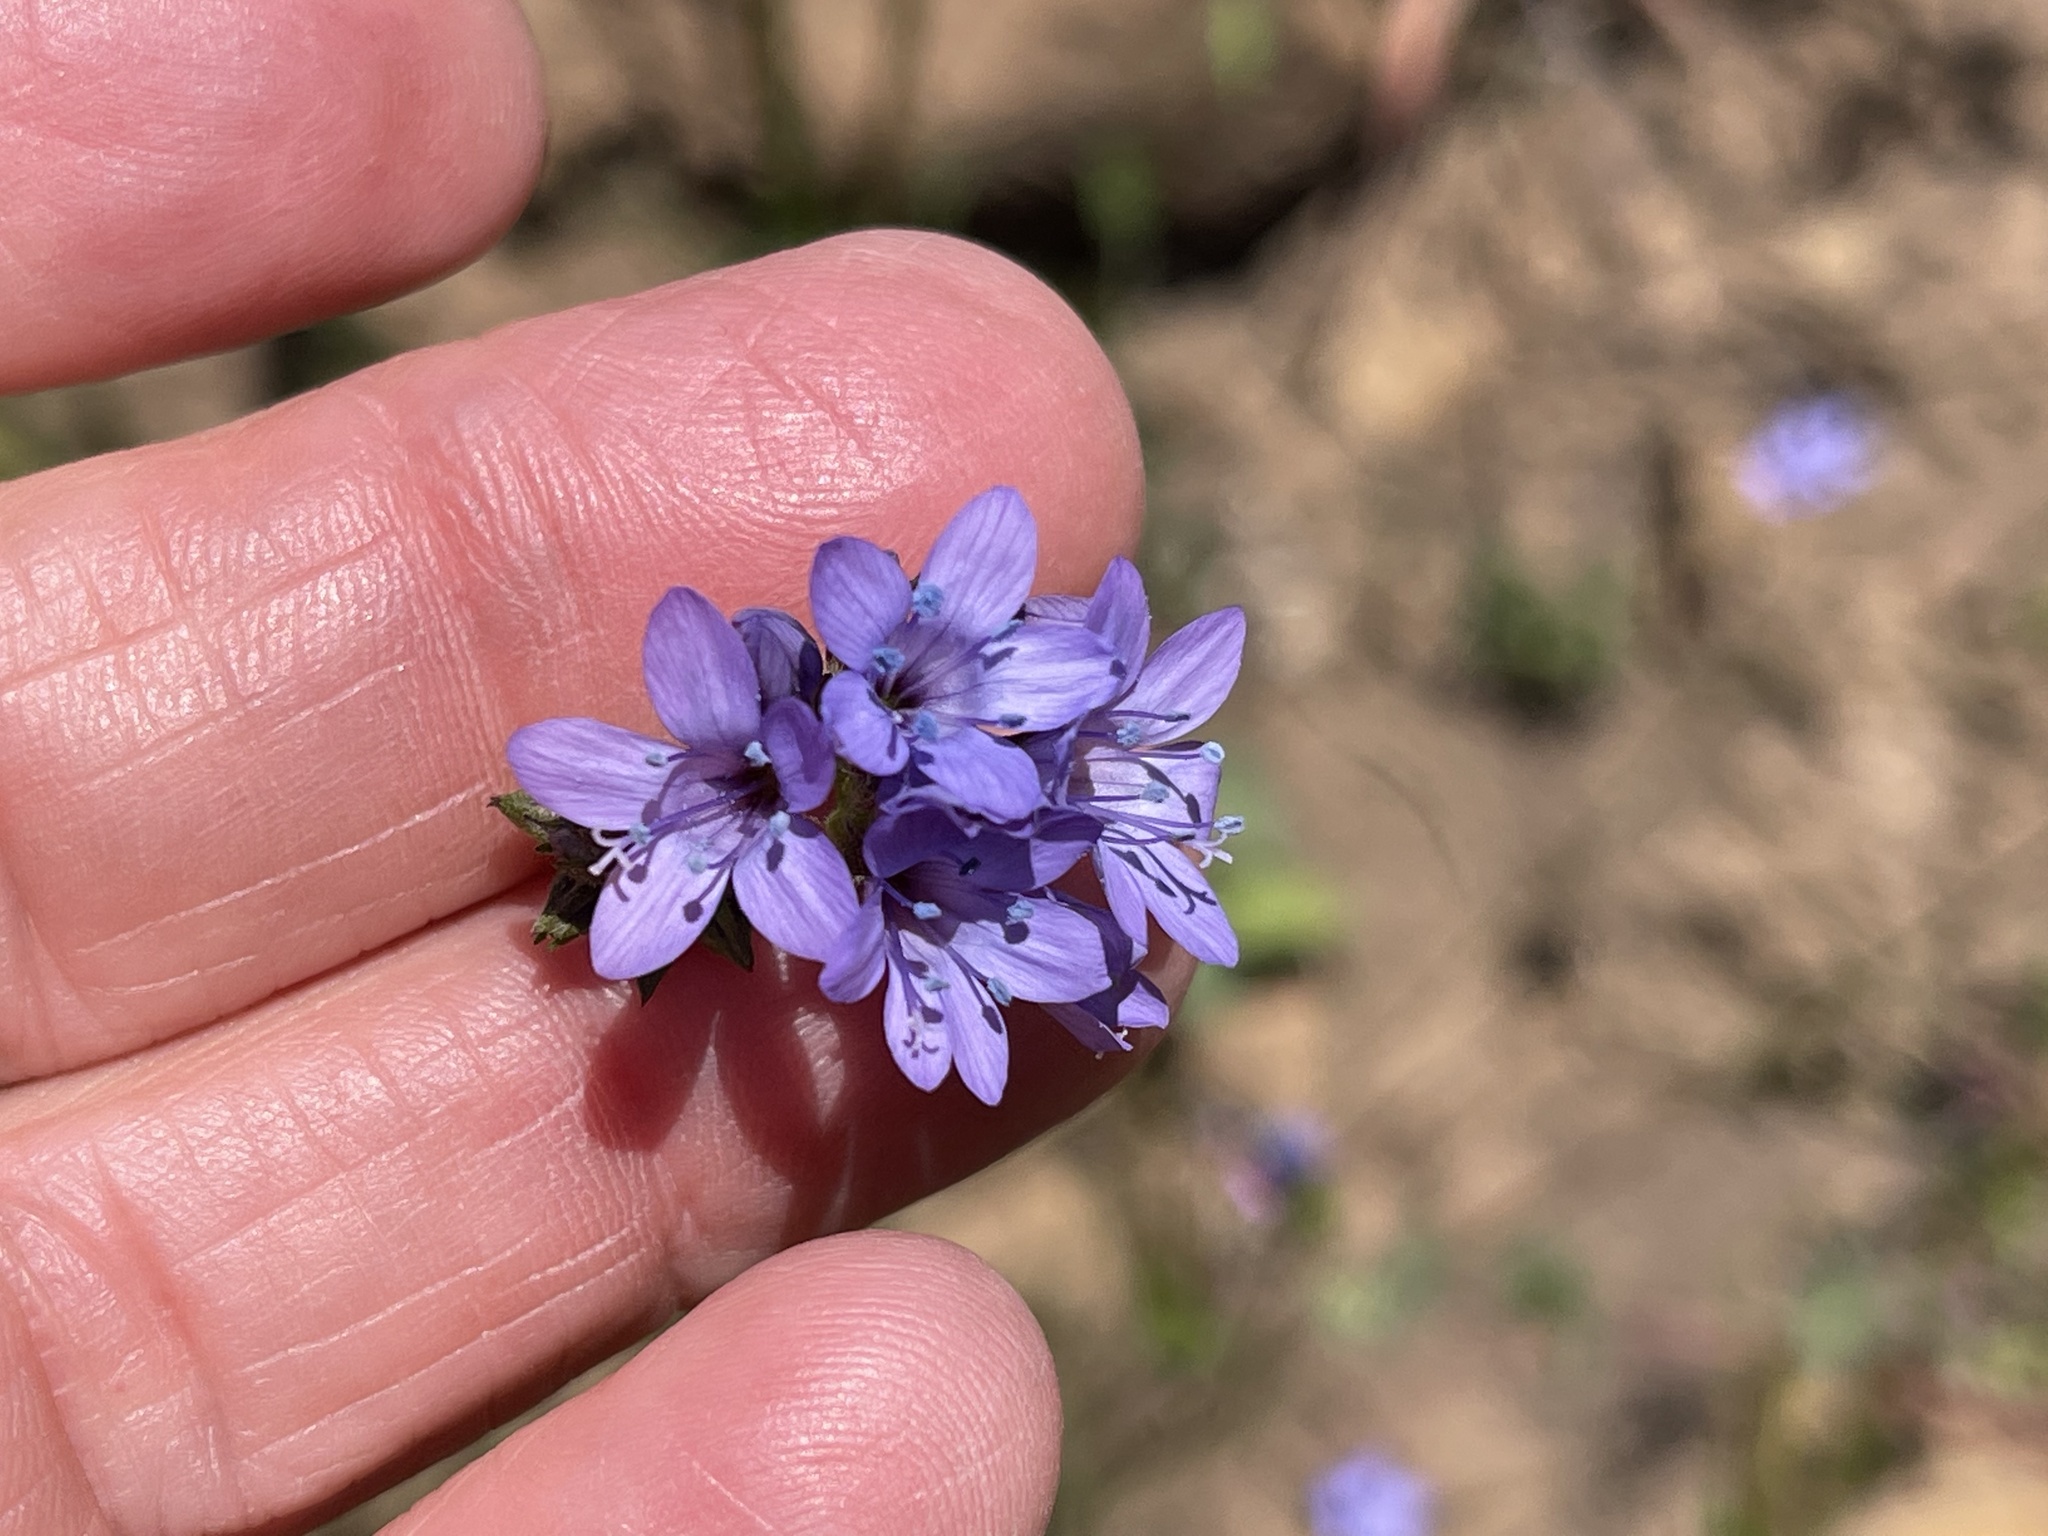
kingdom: Plantae
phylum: Tracheophyta
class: Magnoliopsida
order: Ericales
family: Polemoniaceae
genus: Gilia
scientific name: Gilia achilleifolia
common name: California gily-flower
